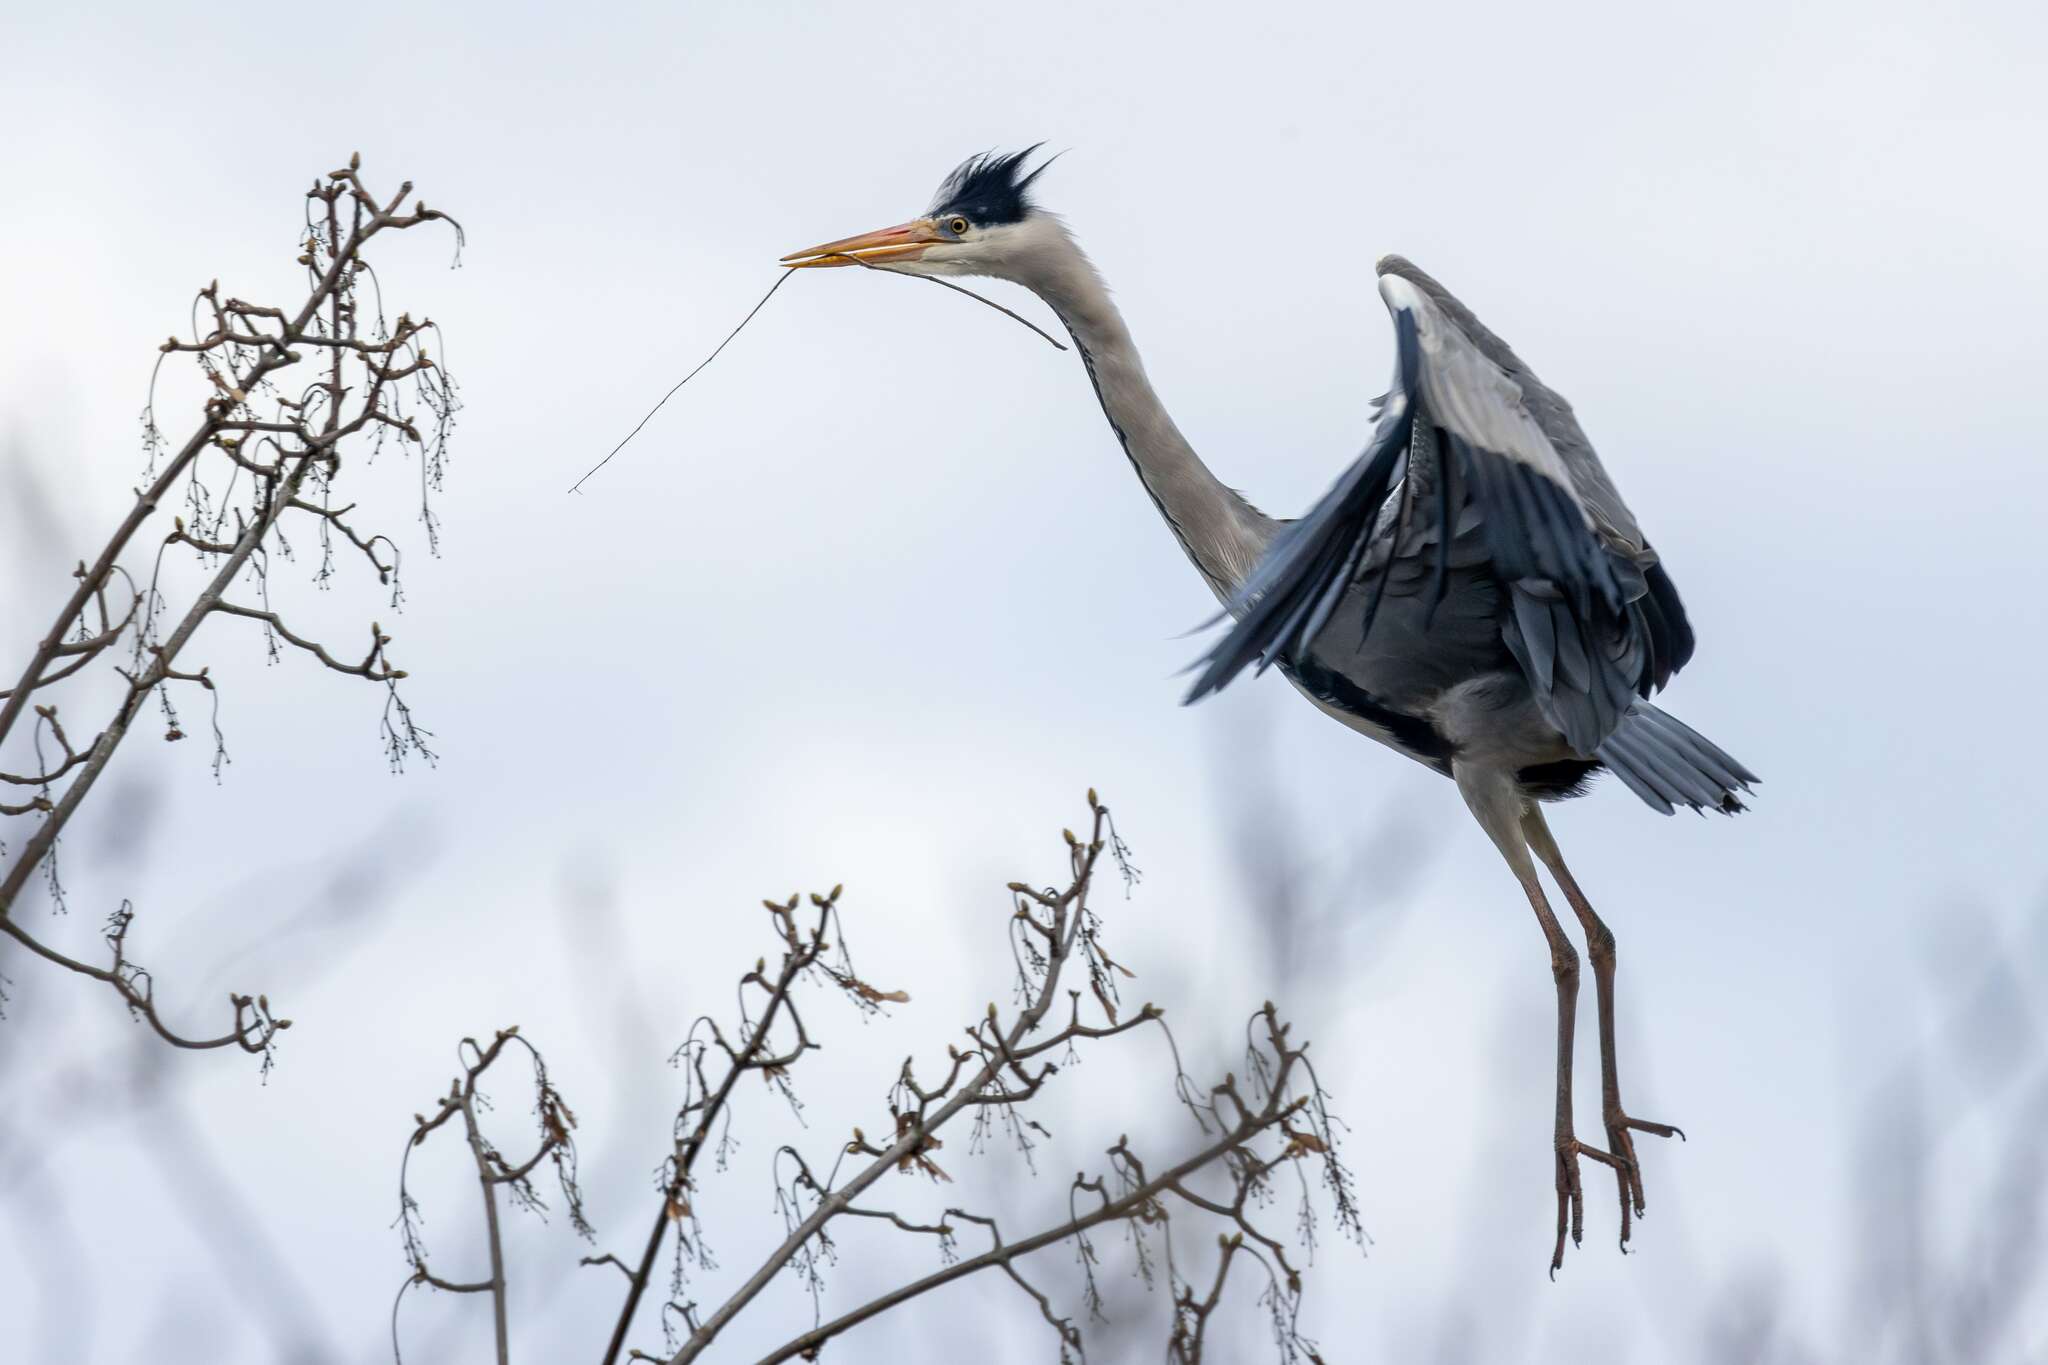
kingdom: Animalia
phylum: Chordata
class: Aves
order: Pelecaniformes
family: Ardeidae
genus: Ardea
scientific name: Ardea cinerea
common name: Grey heron
